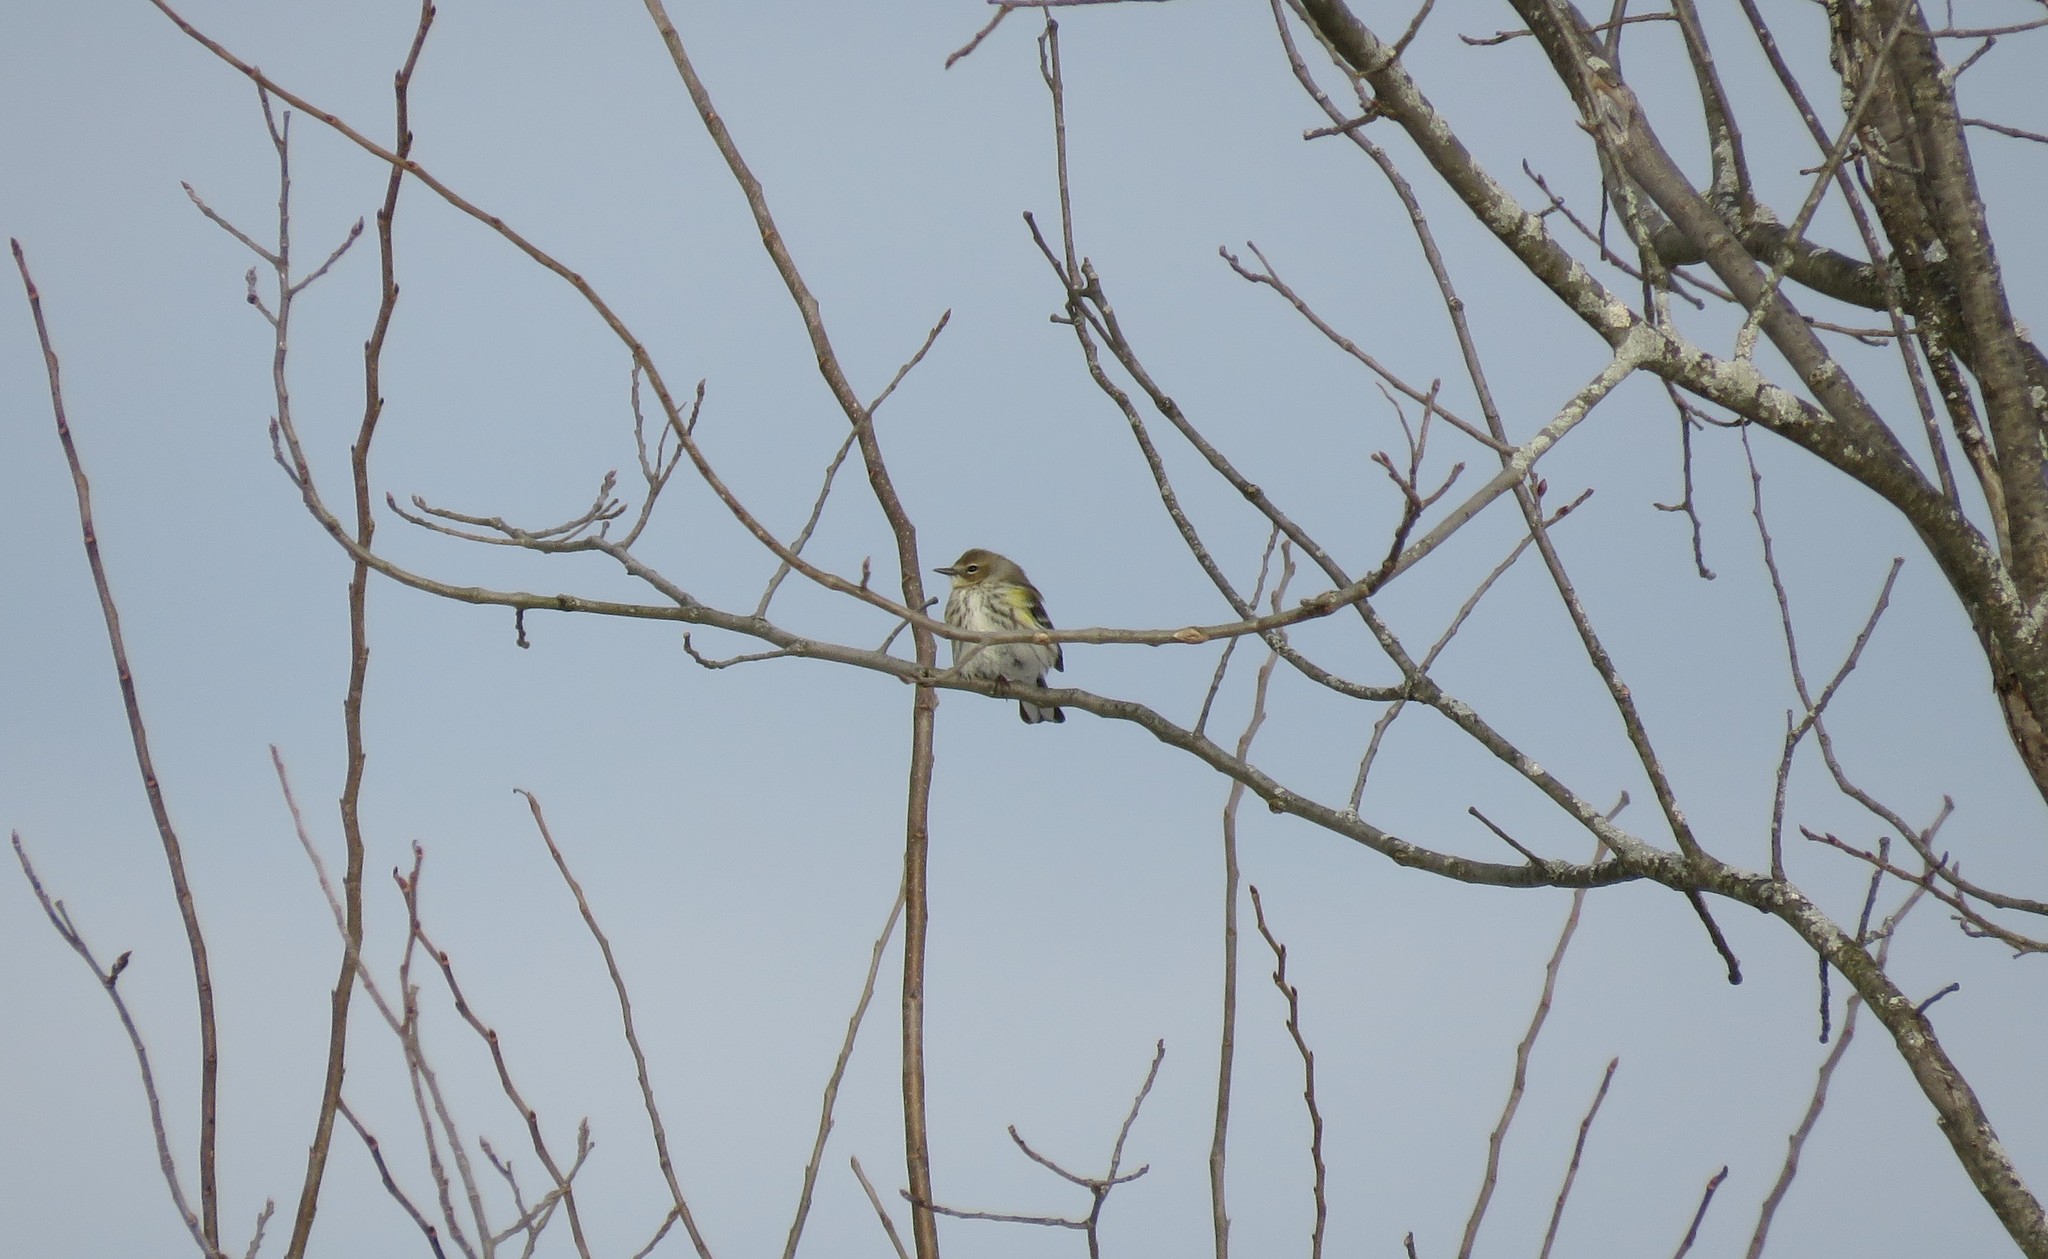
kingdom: Animalia
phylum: Chordata
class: Aves
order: Passeriformes
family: Parulidae
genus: Setophaga
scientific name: Setophaga coronata
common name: Myrtle warbler
